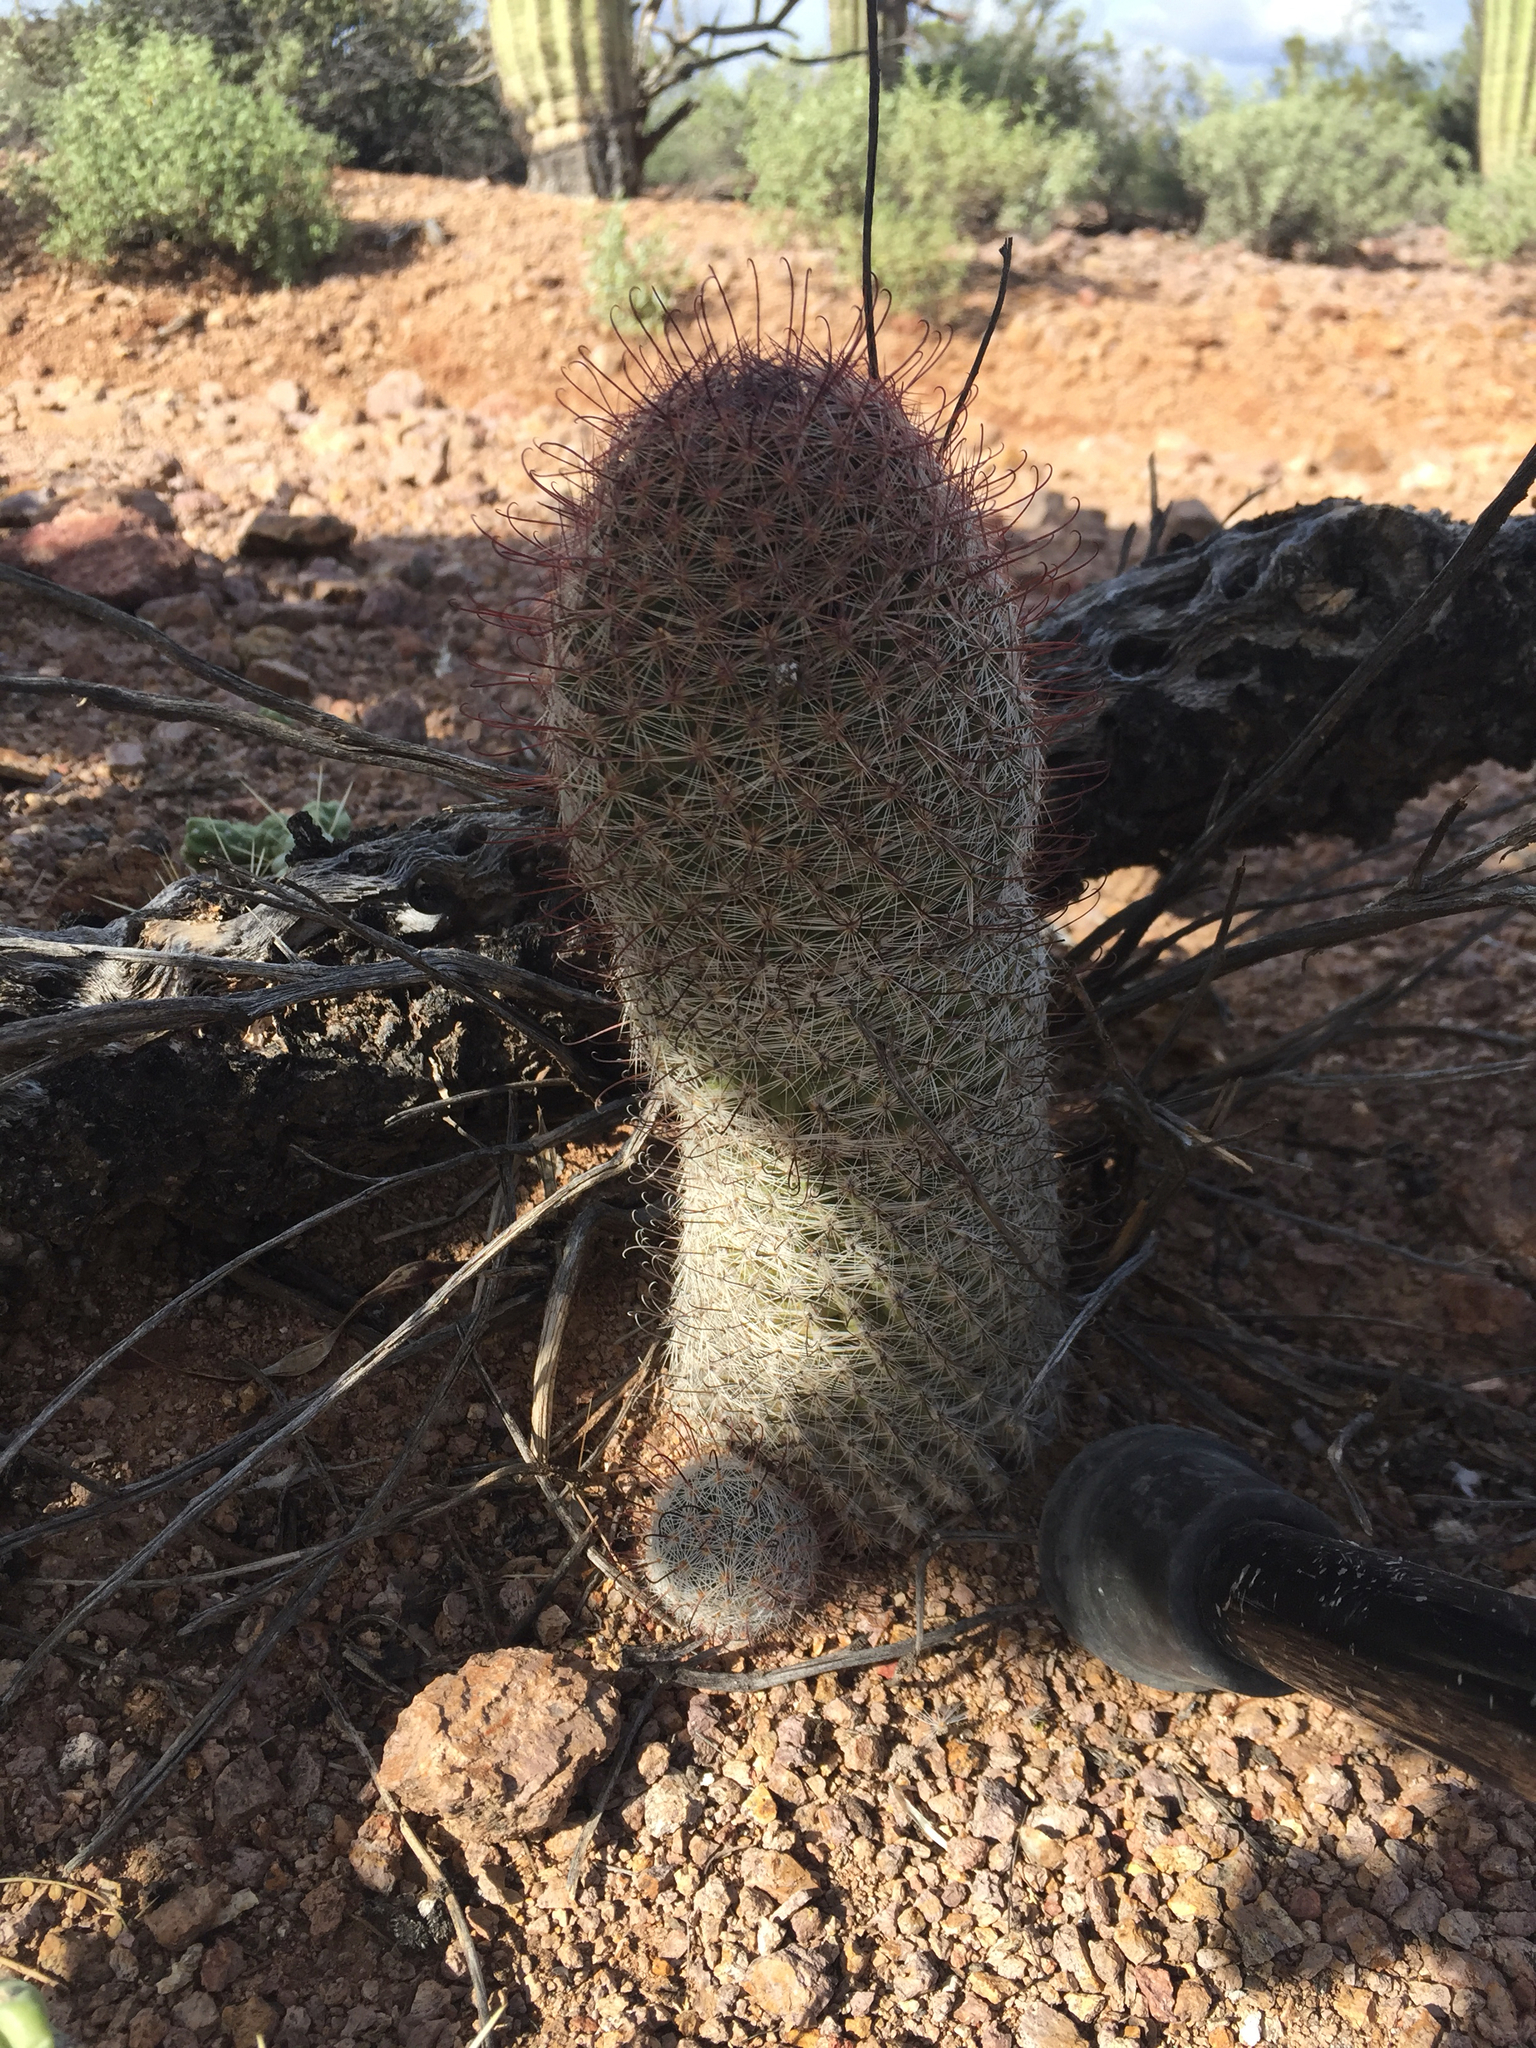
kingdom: Plantae
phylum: Tracheophyta
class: Magnoliopsida
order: Caryophyllales
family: Cactaceae
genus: Cochemiea
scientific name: Cochemiea grahamii
